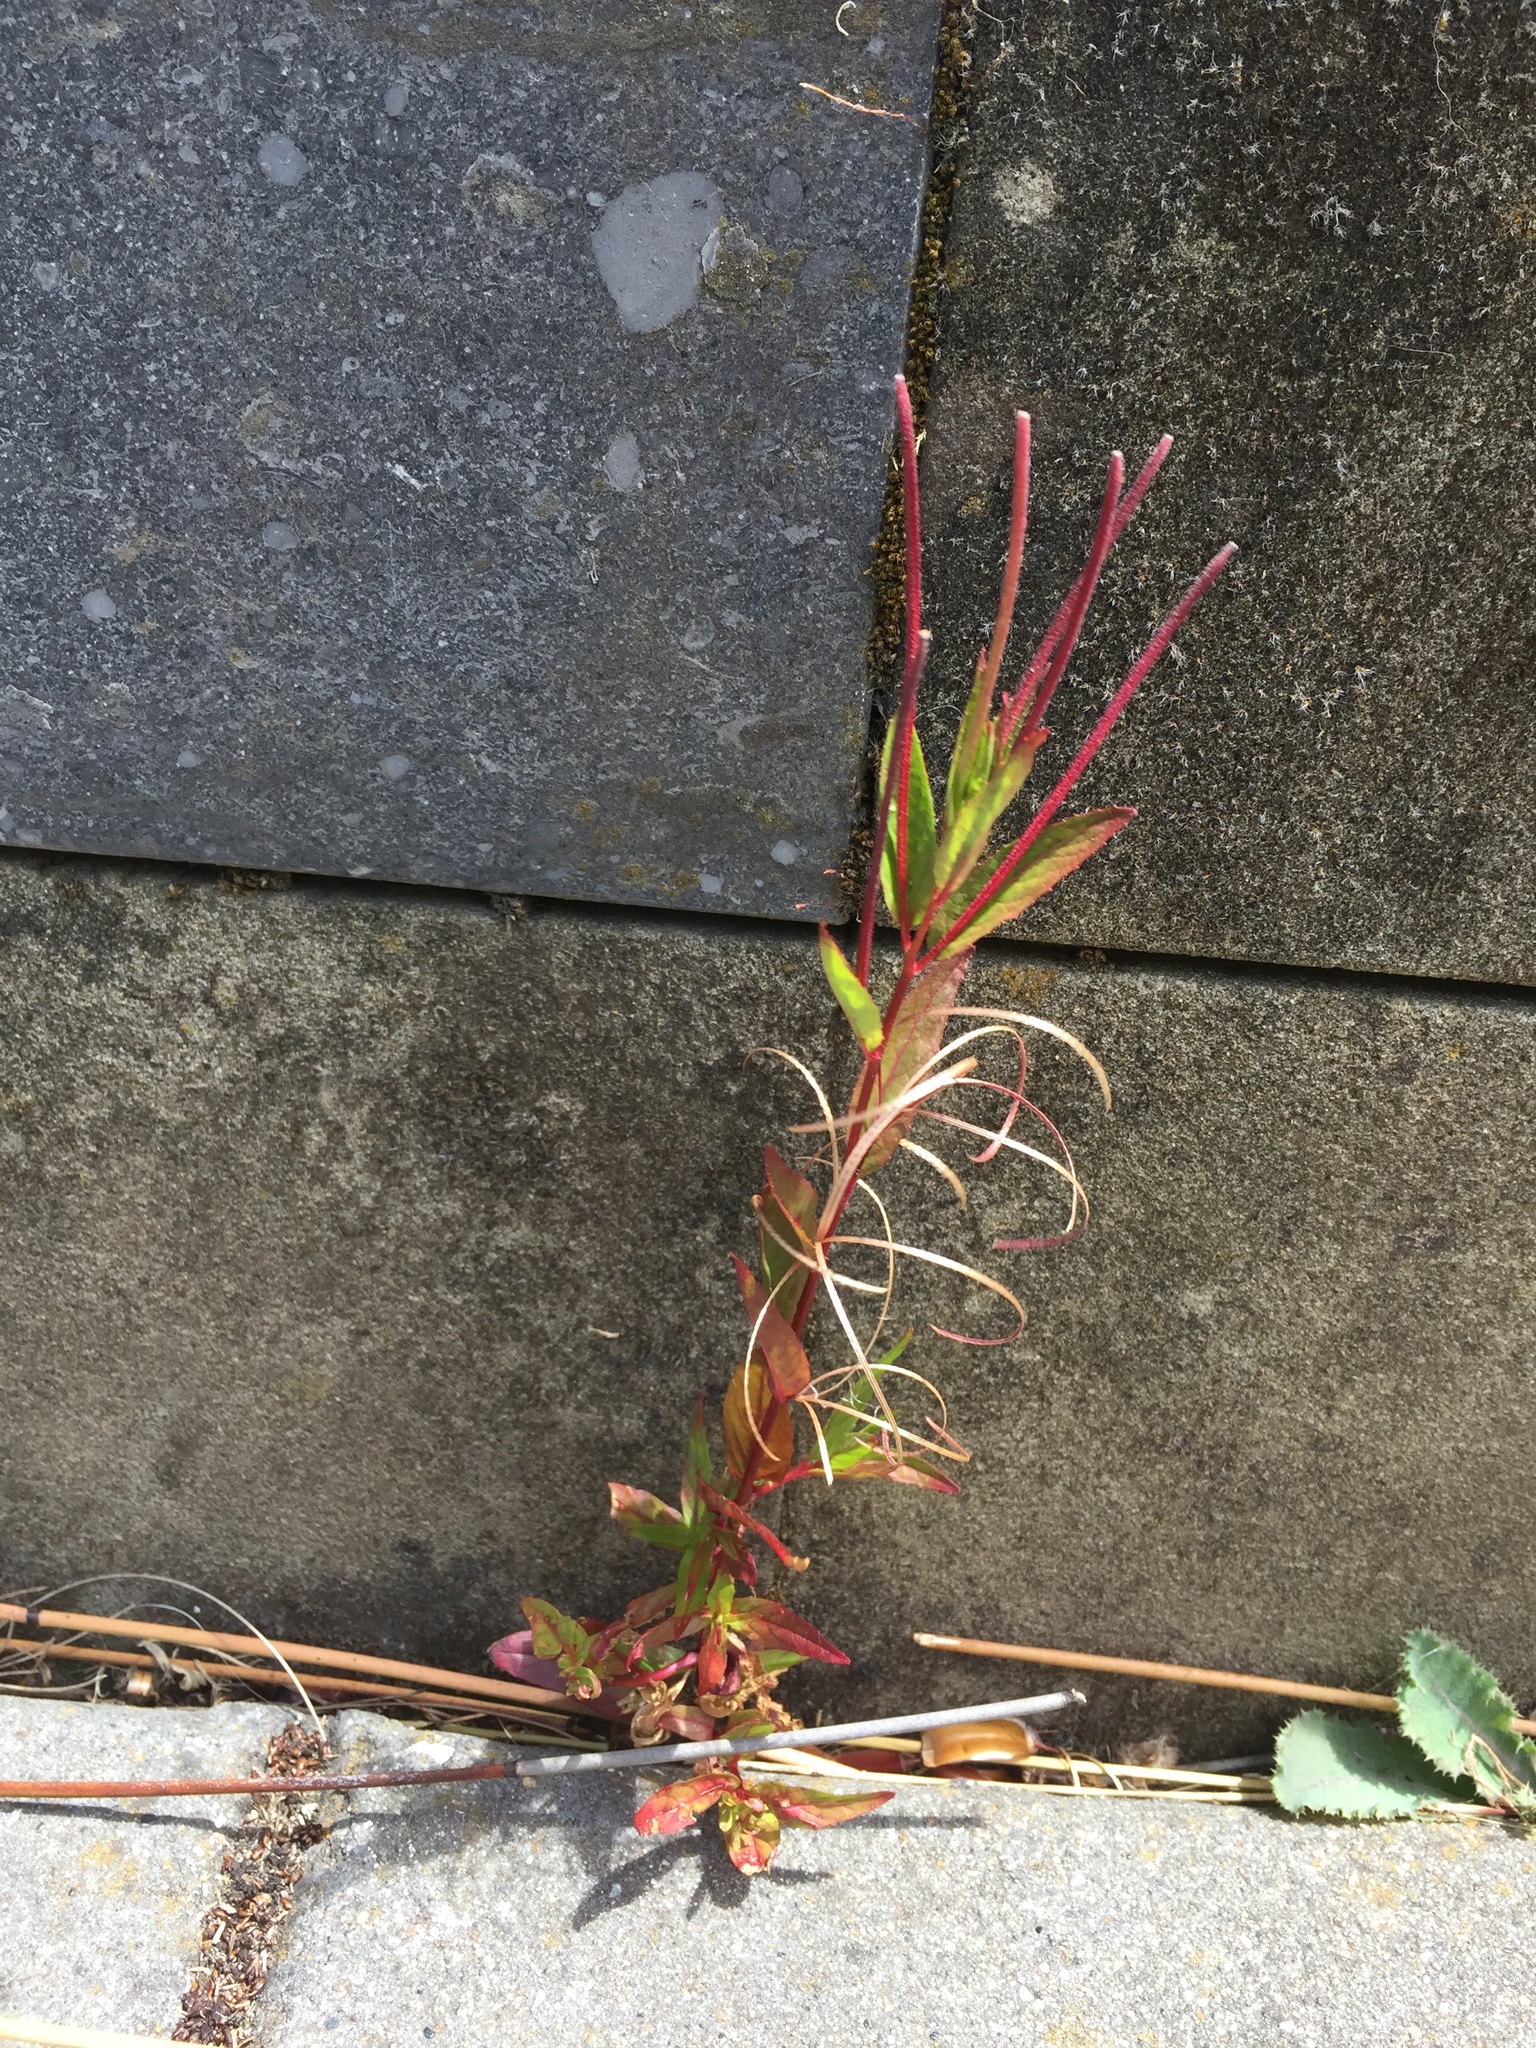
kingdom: Plantae
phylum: Tracheophyta
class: Magnoliopsida
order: Myrtales
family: Onagraceae
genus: Epilobium
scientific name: Epilobium ciliatum
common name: American willowherb
